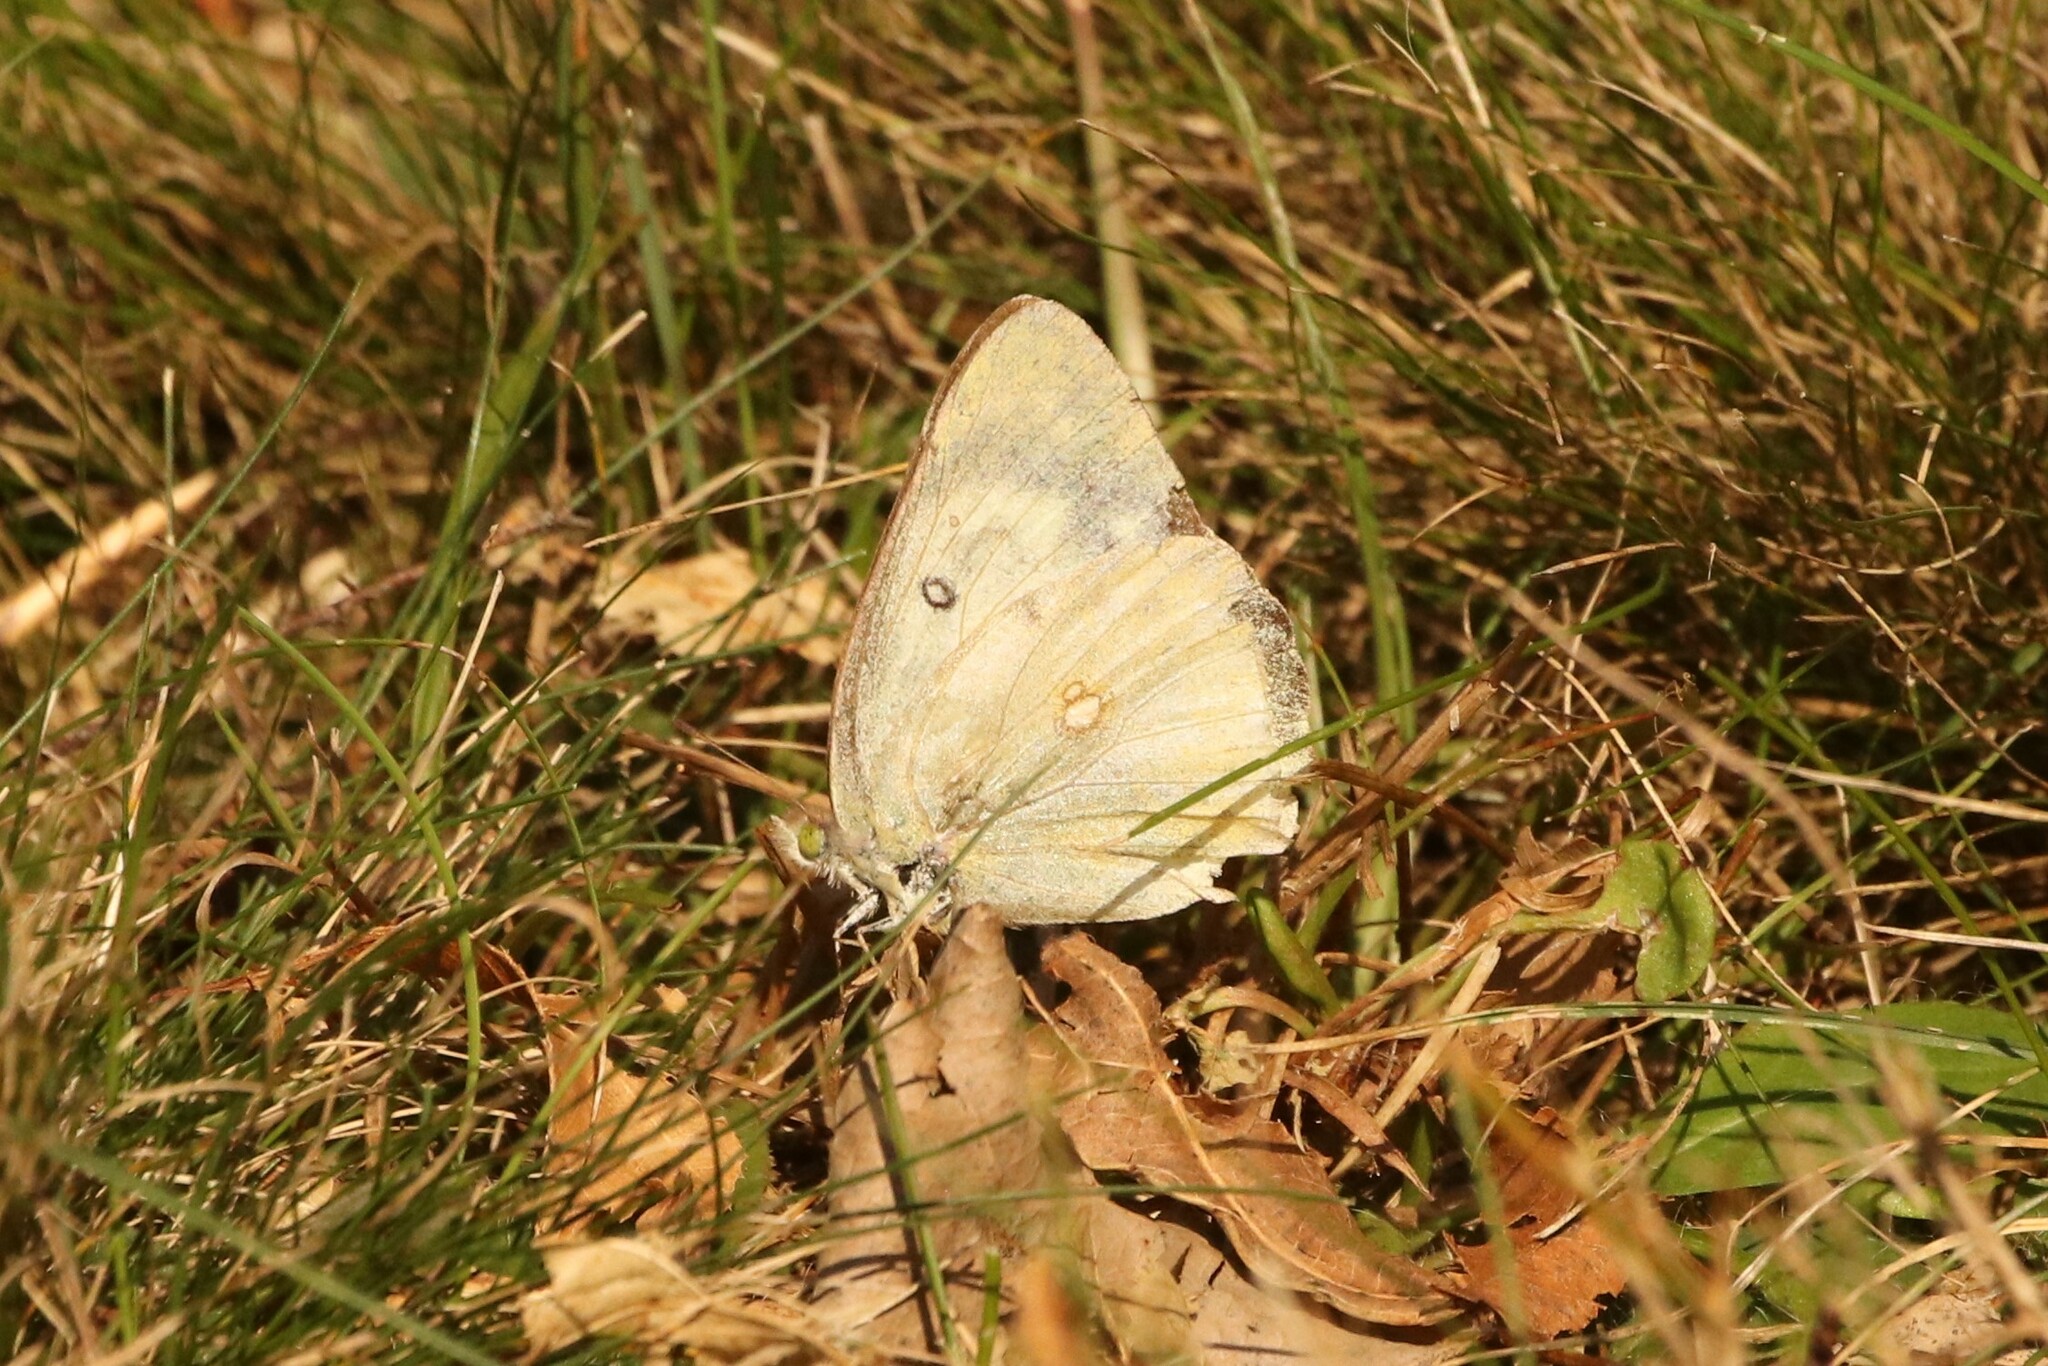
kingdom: Animalia
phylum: Arthropoda
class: Insecta
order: Lepidoptera
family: Pieridae
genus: Colias
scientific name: Colias philodice
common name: Clouded sulphur
